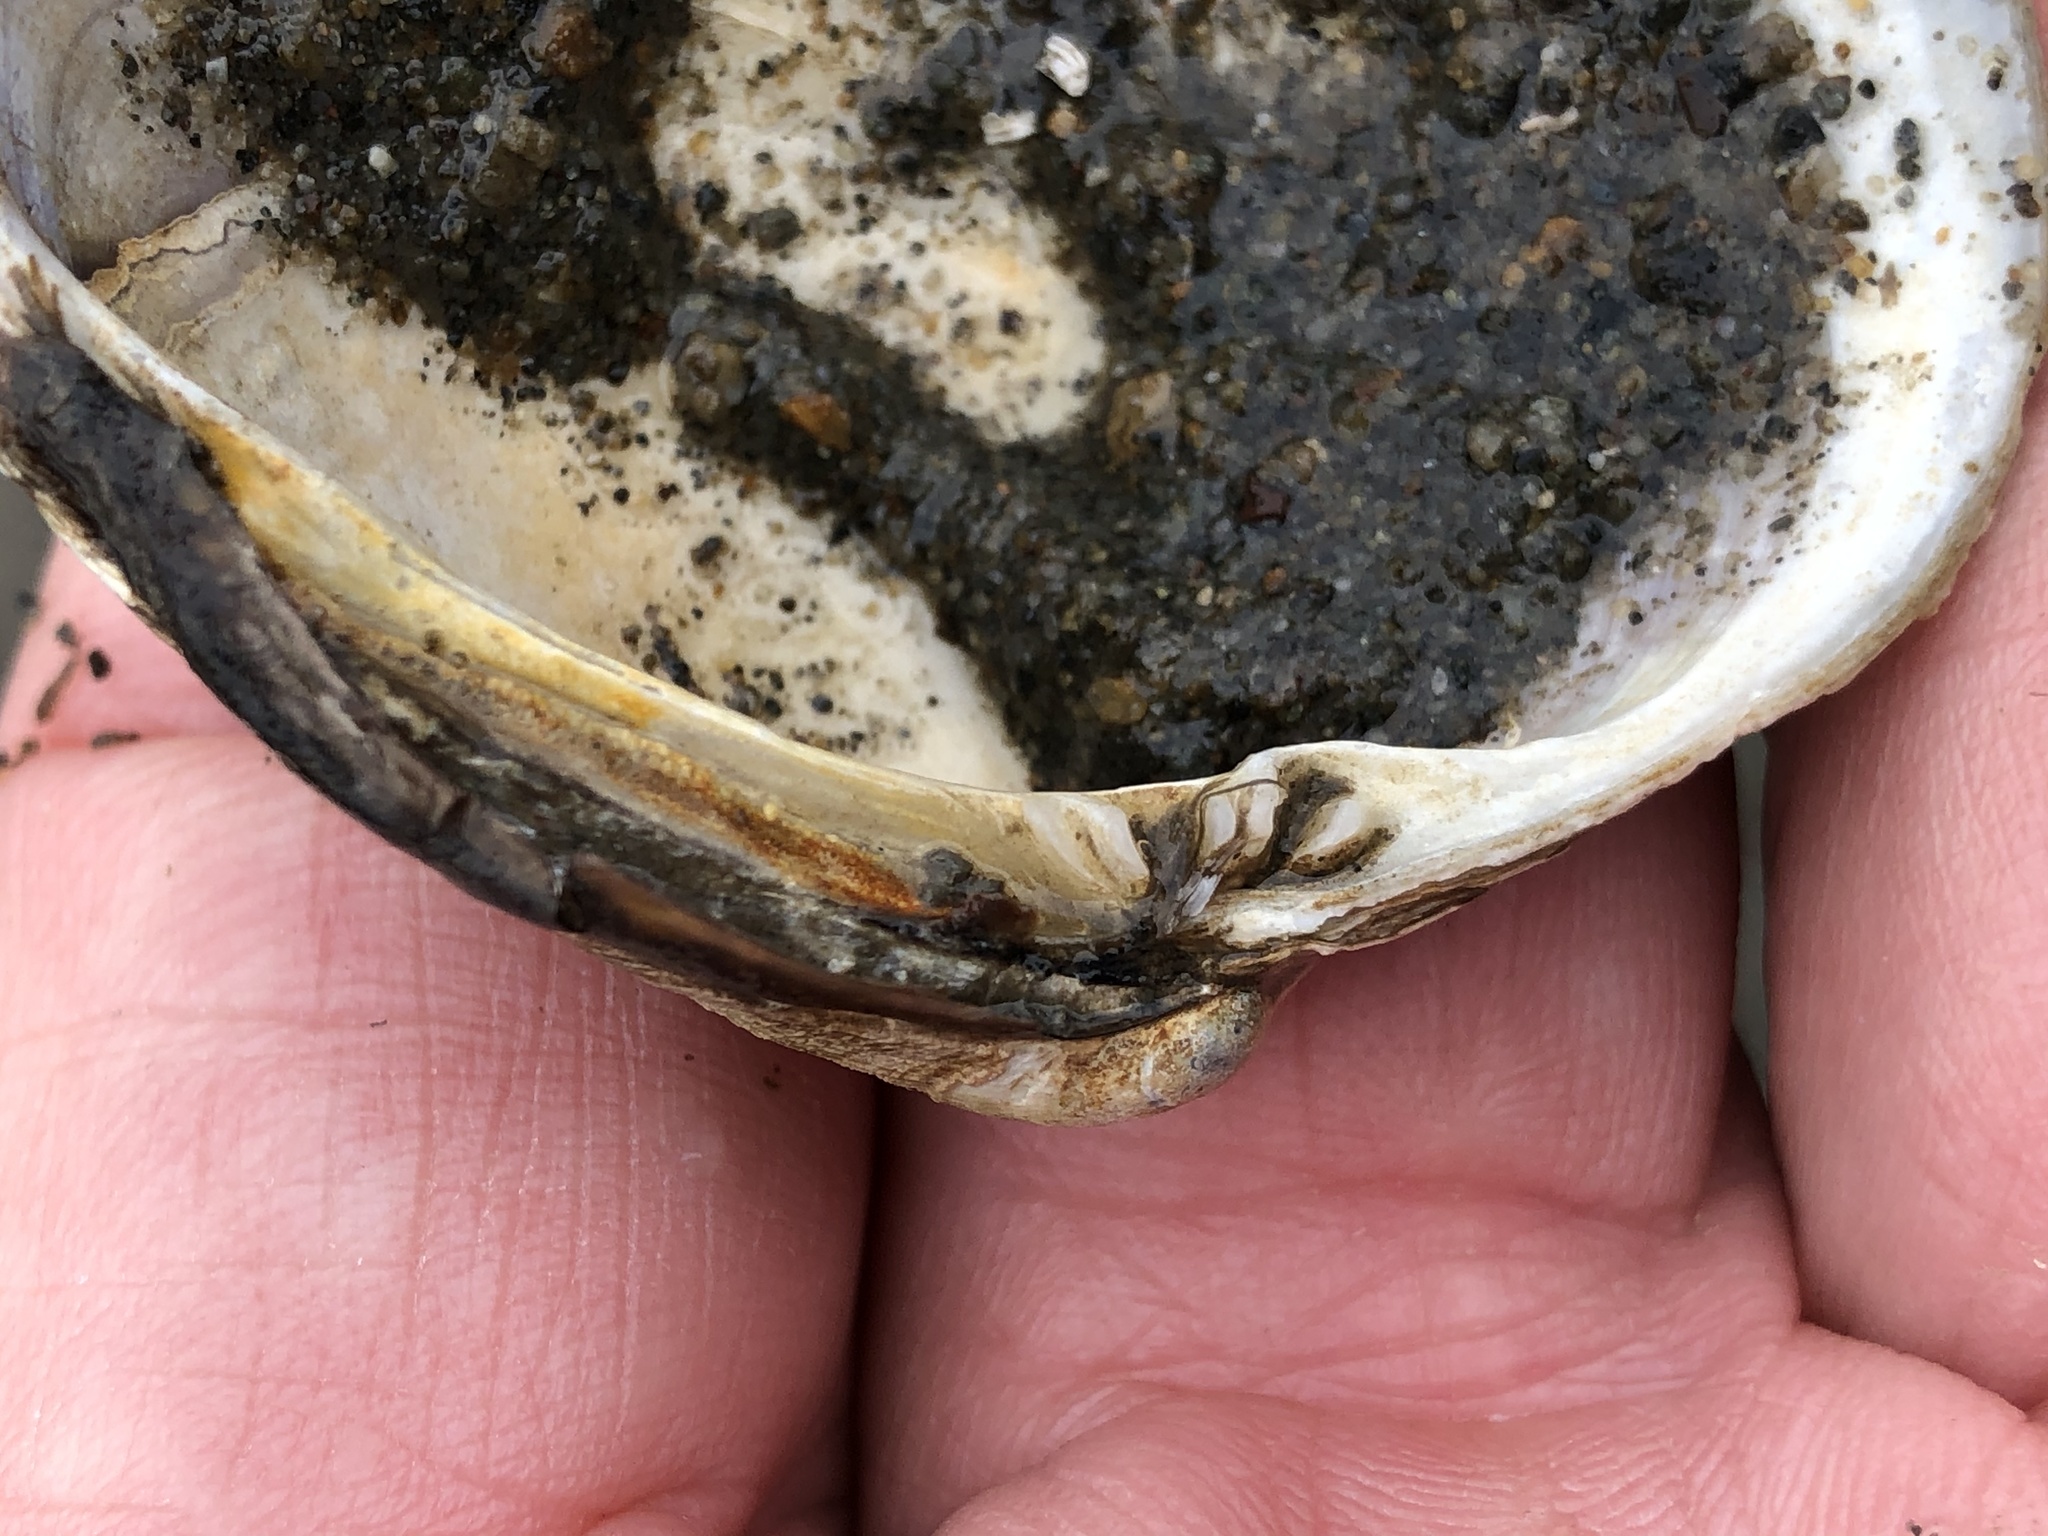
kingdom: Animalia
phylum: Mollusca
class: Bivalvia
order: Venerida
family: Veneridae
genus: Ruditapes
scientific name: Ruditapes philippinarum
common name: Manila clam
